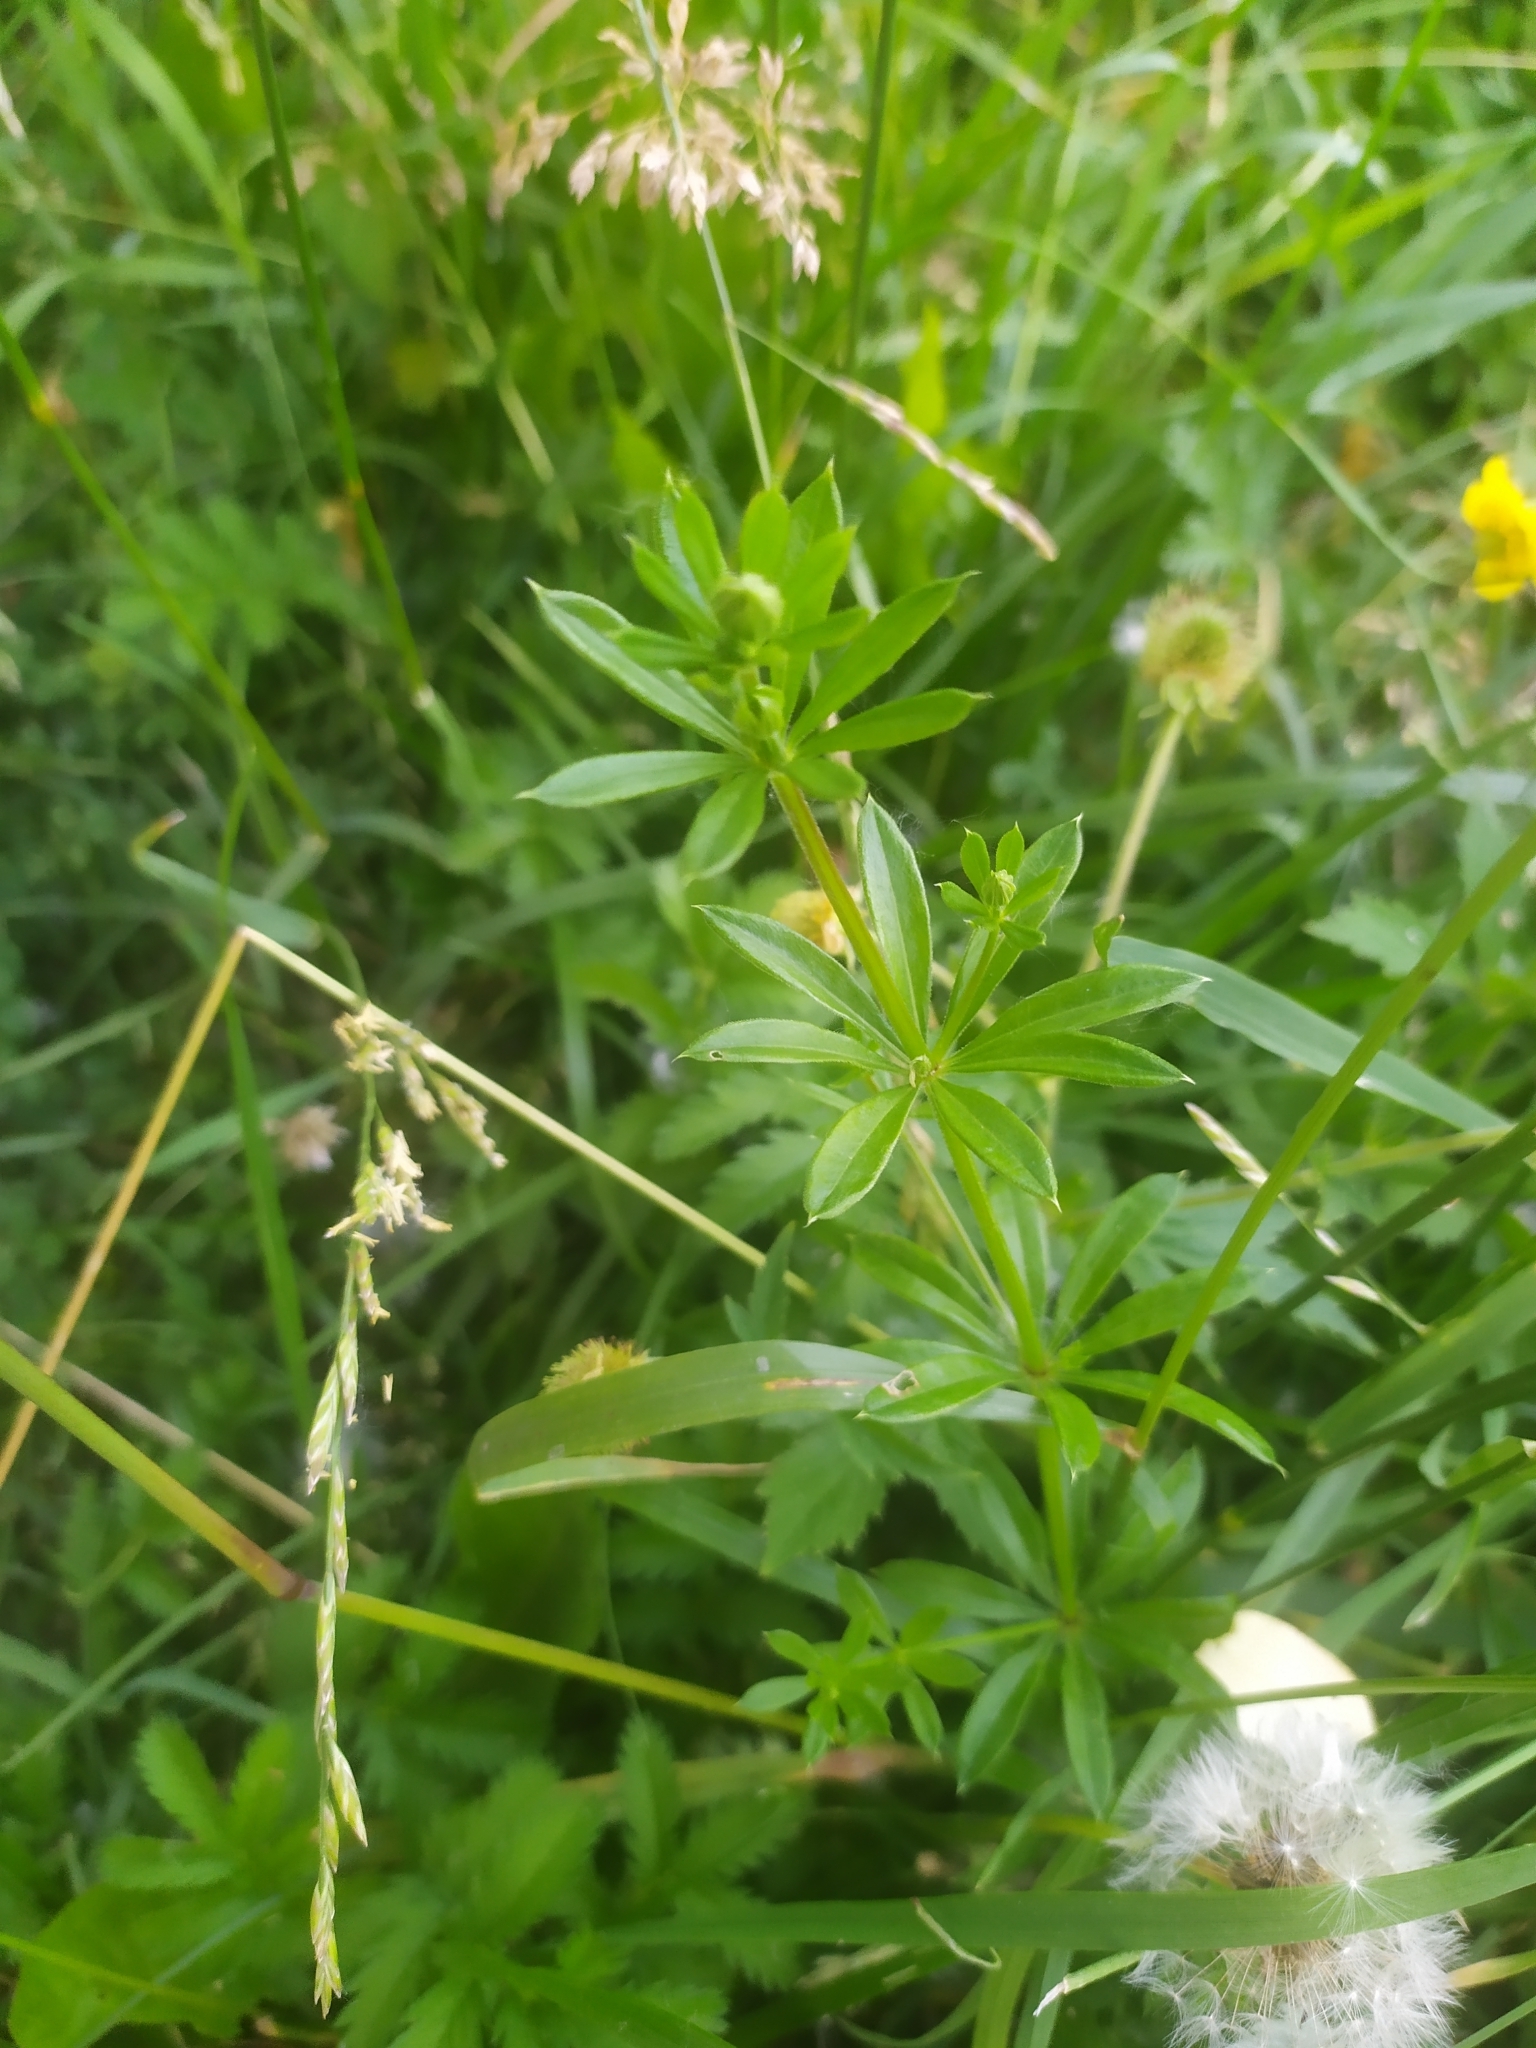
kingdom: Plantae
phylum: Tracheophyta
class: Magnoliopsida
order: Gentianales
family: Rubiaceae
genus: Galium
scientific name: Galium rivale
